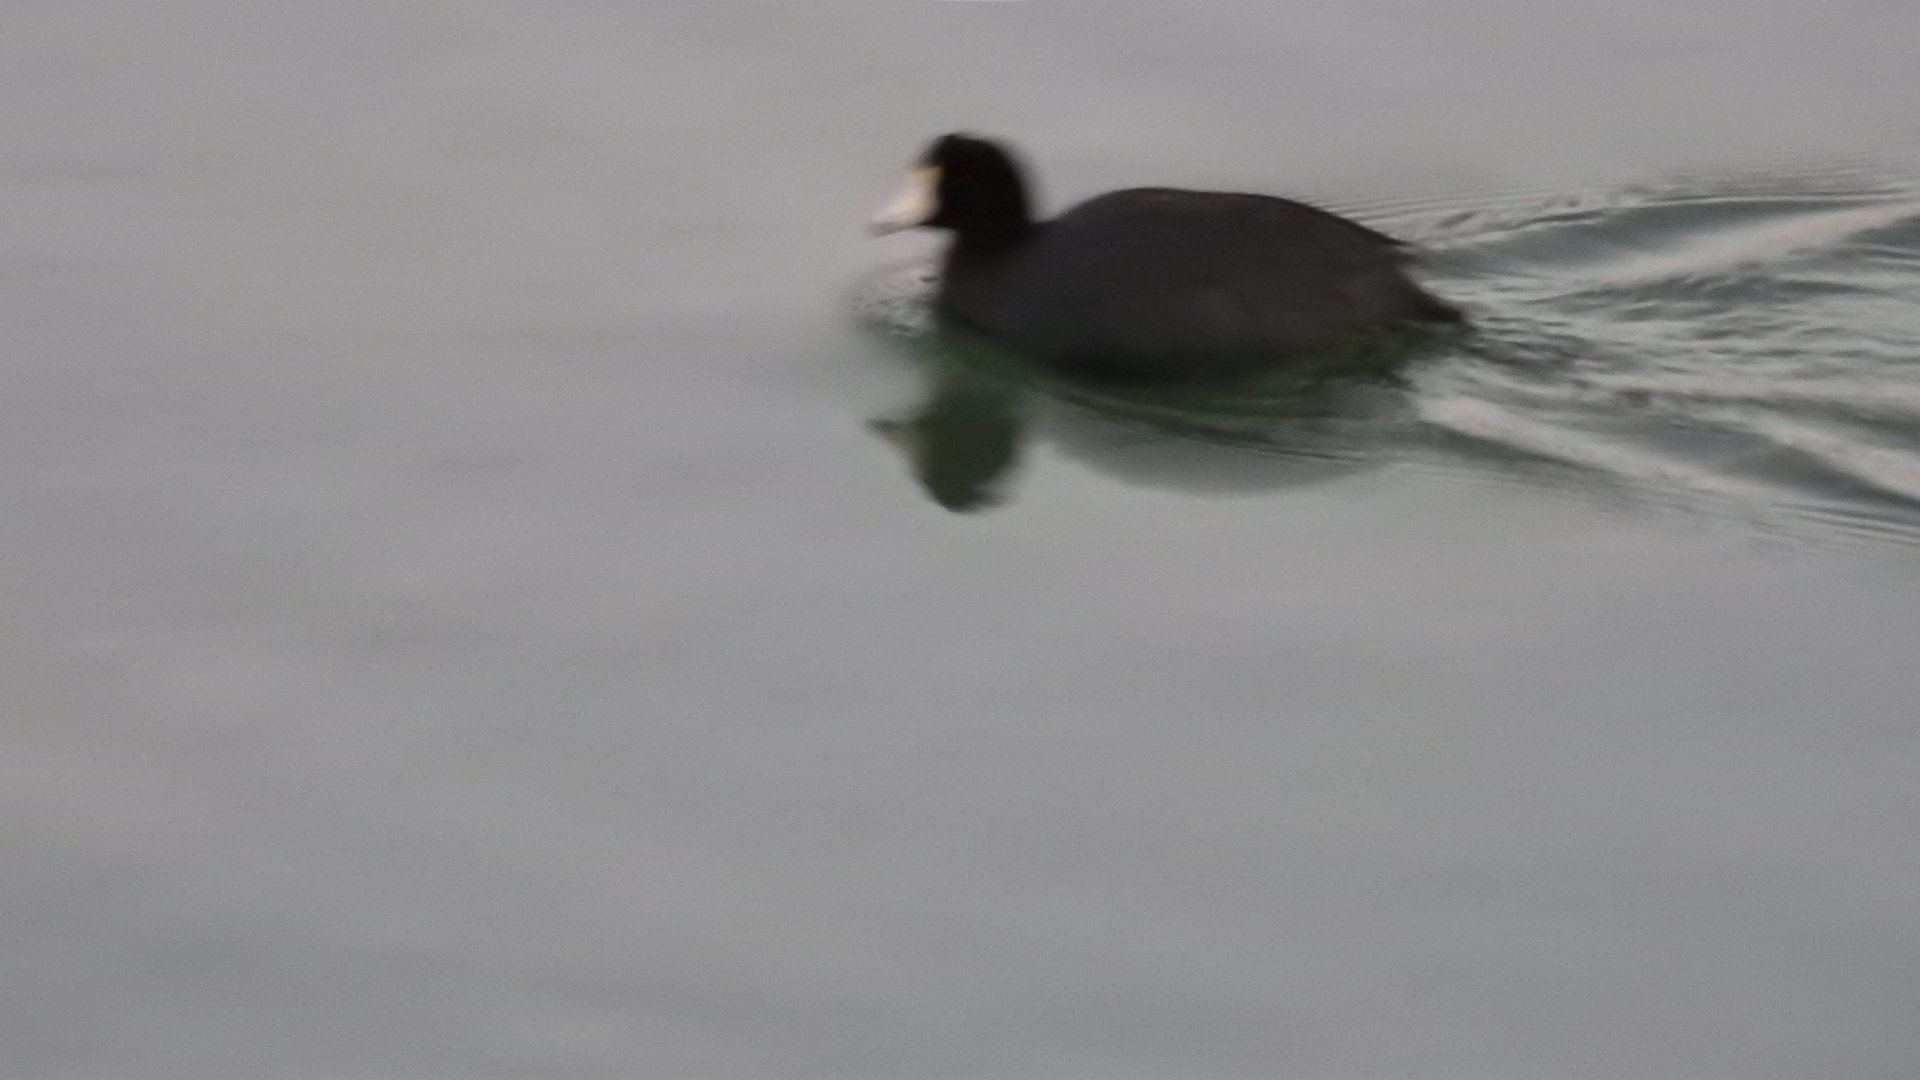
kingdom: Animalia
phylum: Chordata
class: Aves
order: Gruiformes
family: Rallidae
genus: Fulica
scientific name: Fulica americana
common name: American coot
